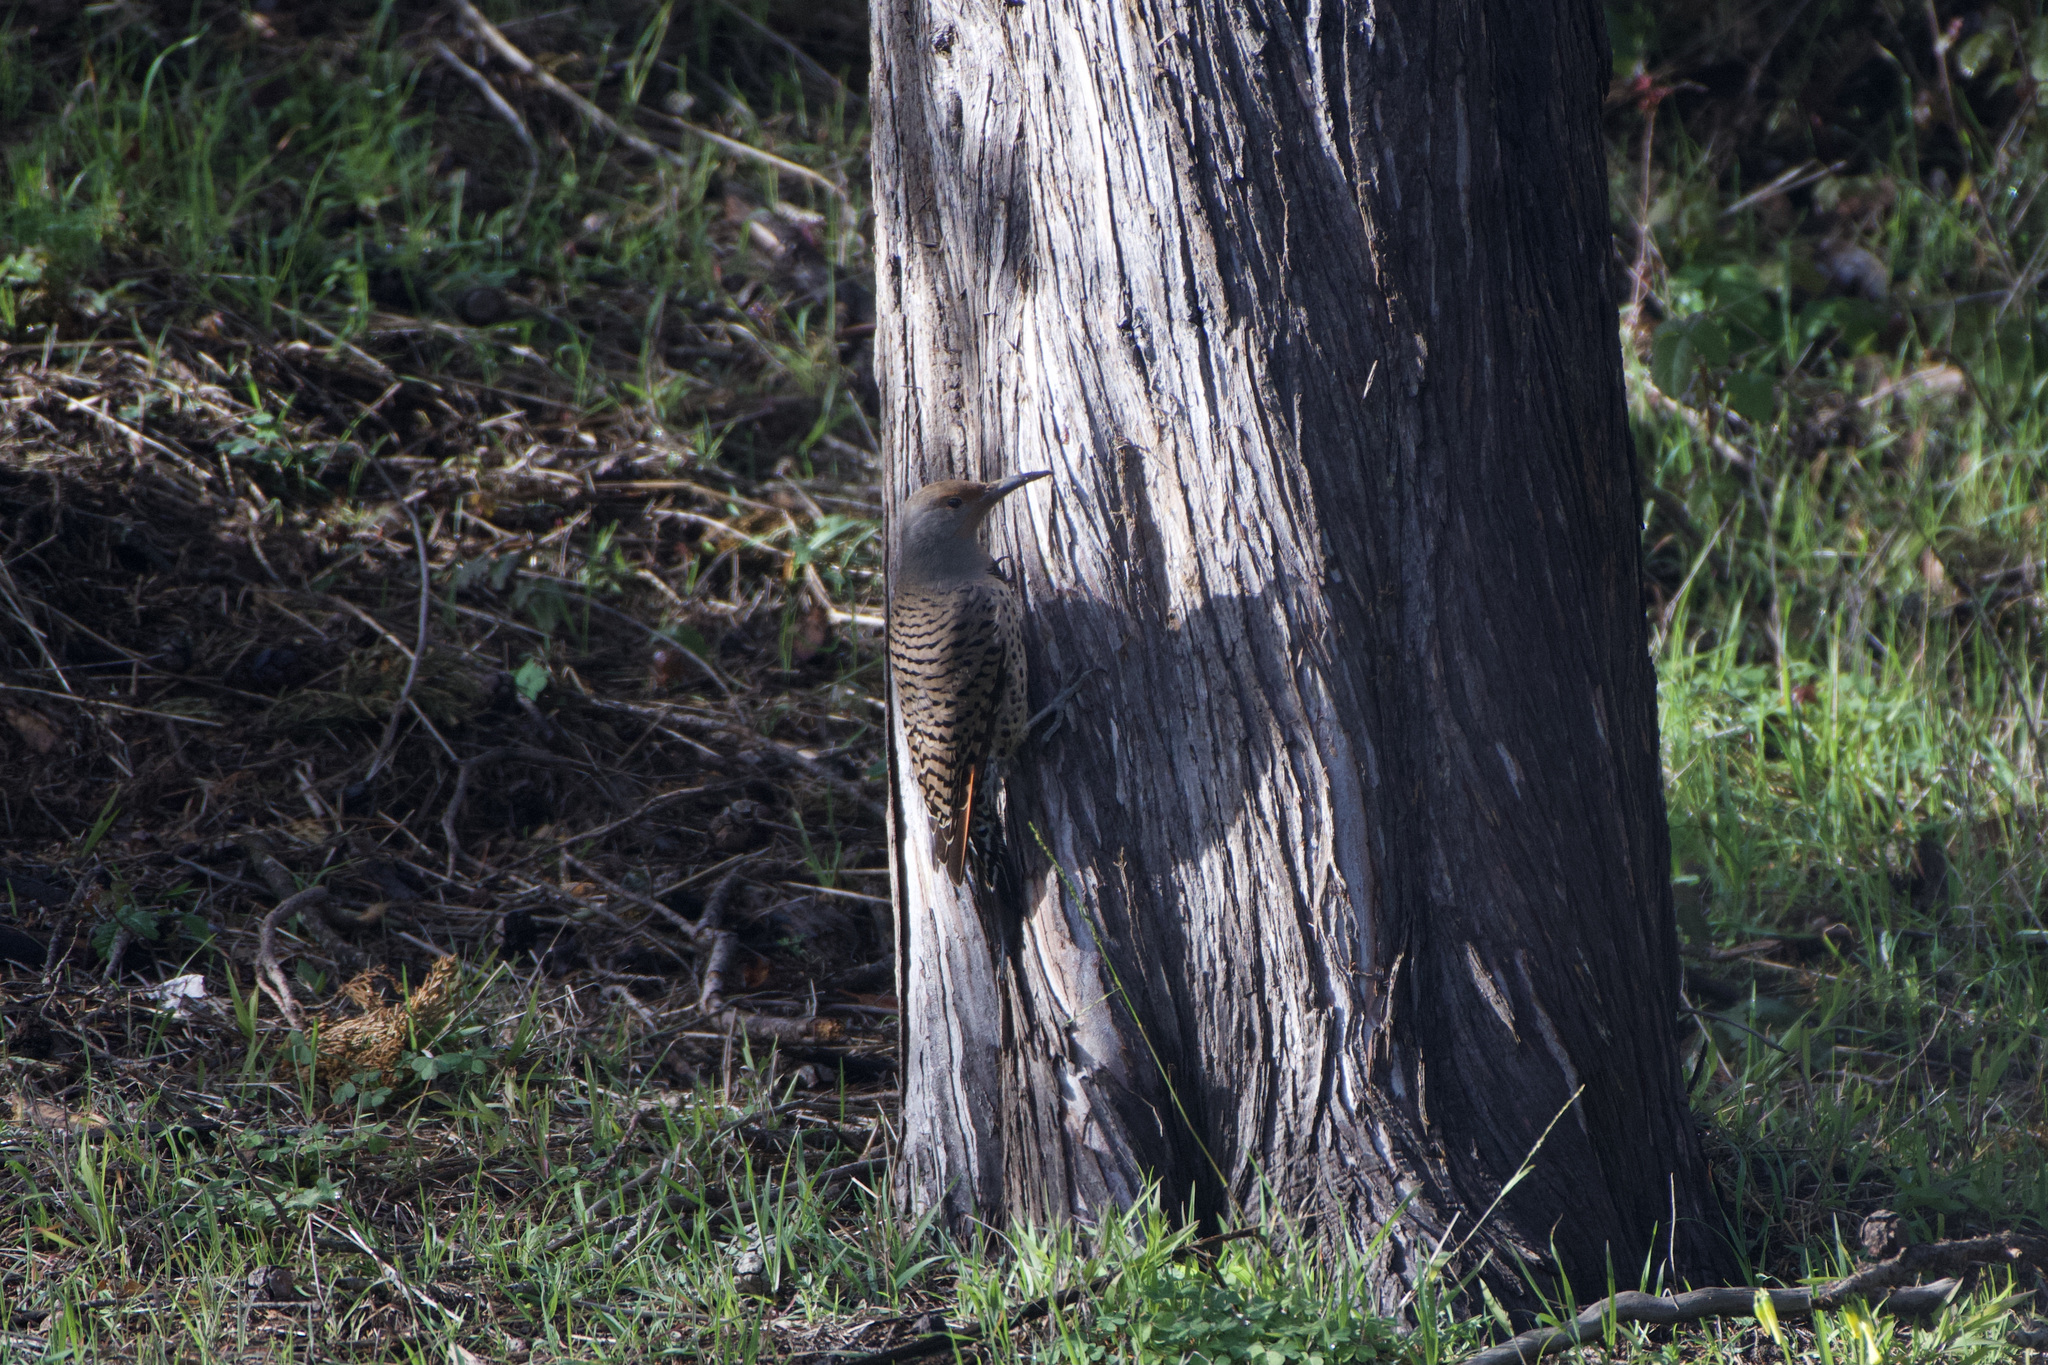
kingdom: Animalia
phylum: Chordata
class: Aves
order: Piciformes
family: Picidae
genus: Colaptes
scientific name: Colaptes auratus
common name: Northern flicker
